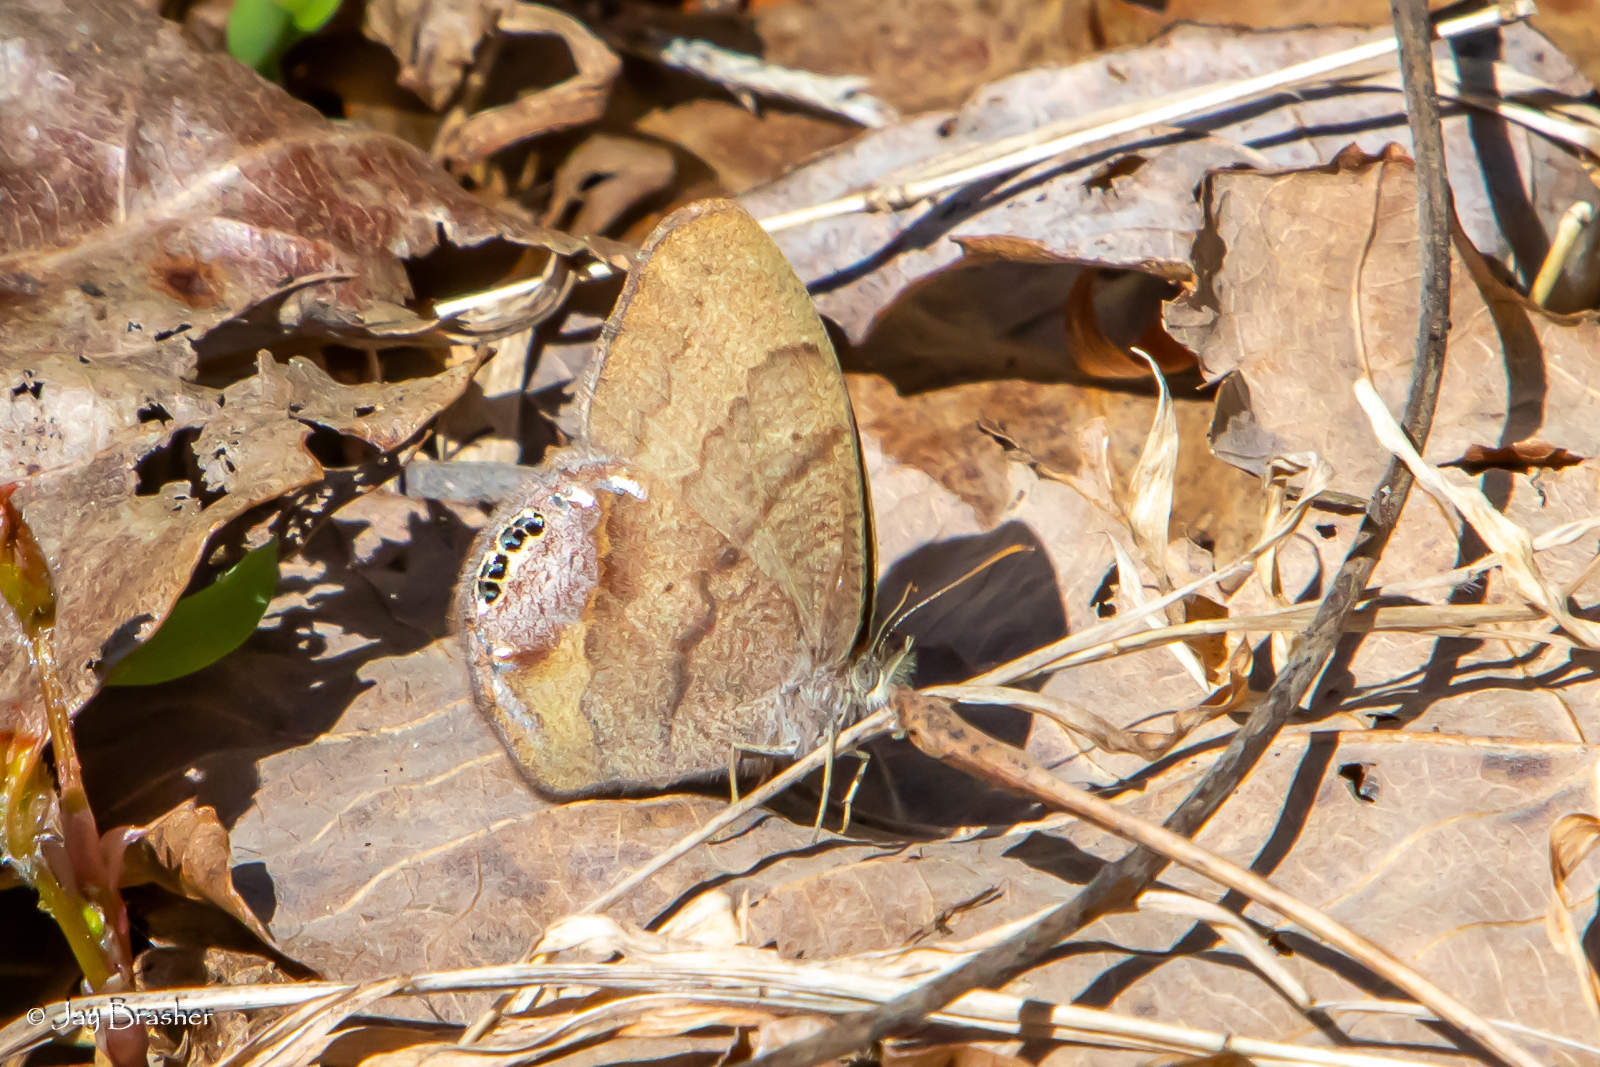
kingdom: Animalia
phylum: Arthropoda
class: Insecta
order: Lepidoptera
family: Nymphalidae
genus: Euptychia
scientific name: Euptychia cornelius
